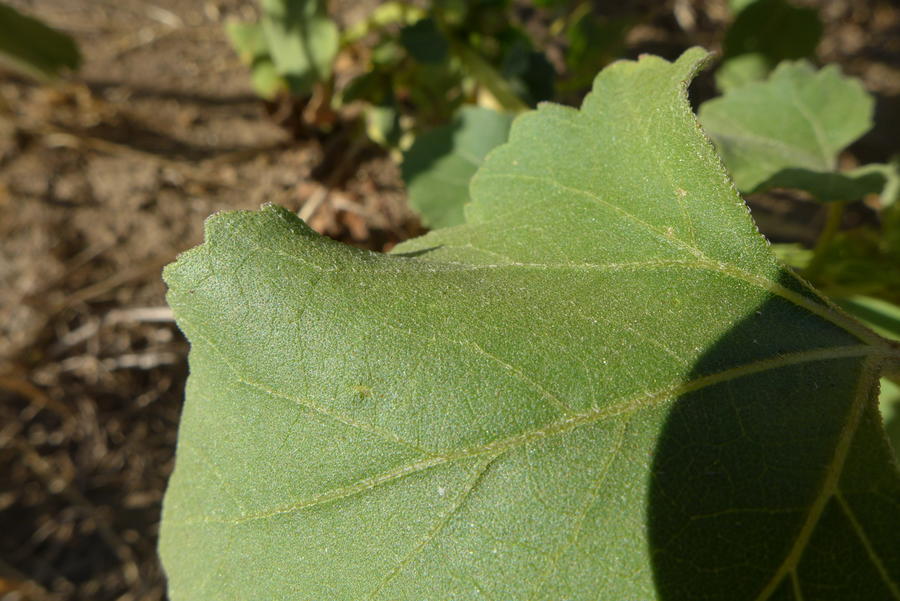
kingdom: Plantae
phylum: Tracheophyta
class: Magnoliopsida
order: Asterales
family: Asteraceae
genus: Xanthium
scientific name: Xanthium orientale
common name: Californian burr
